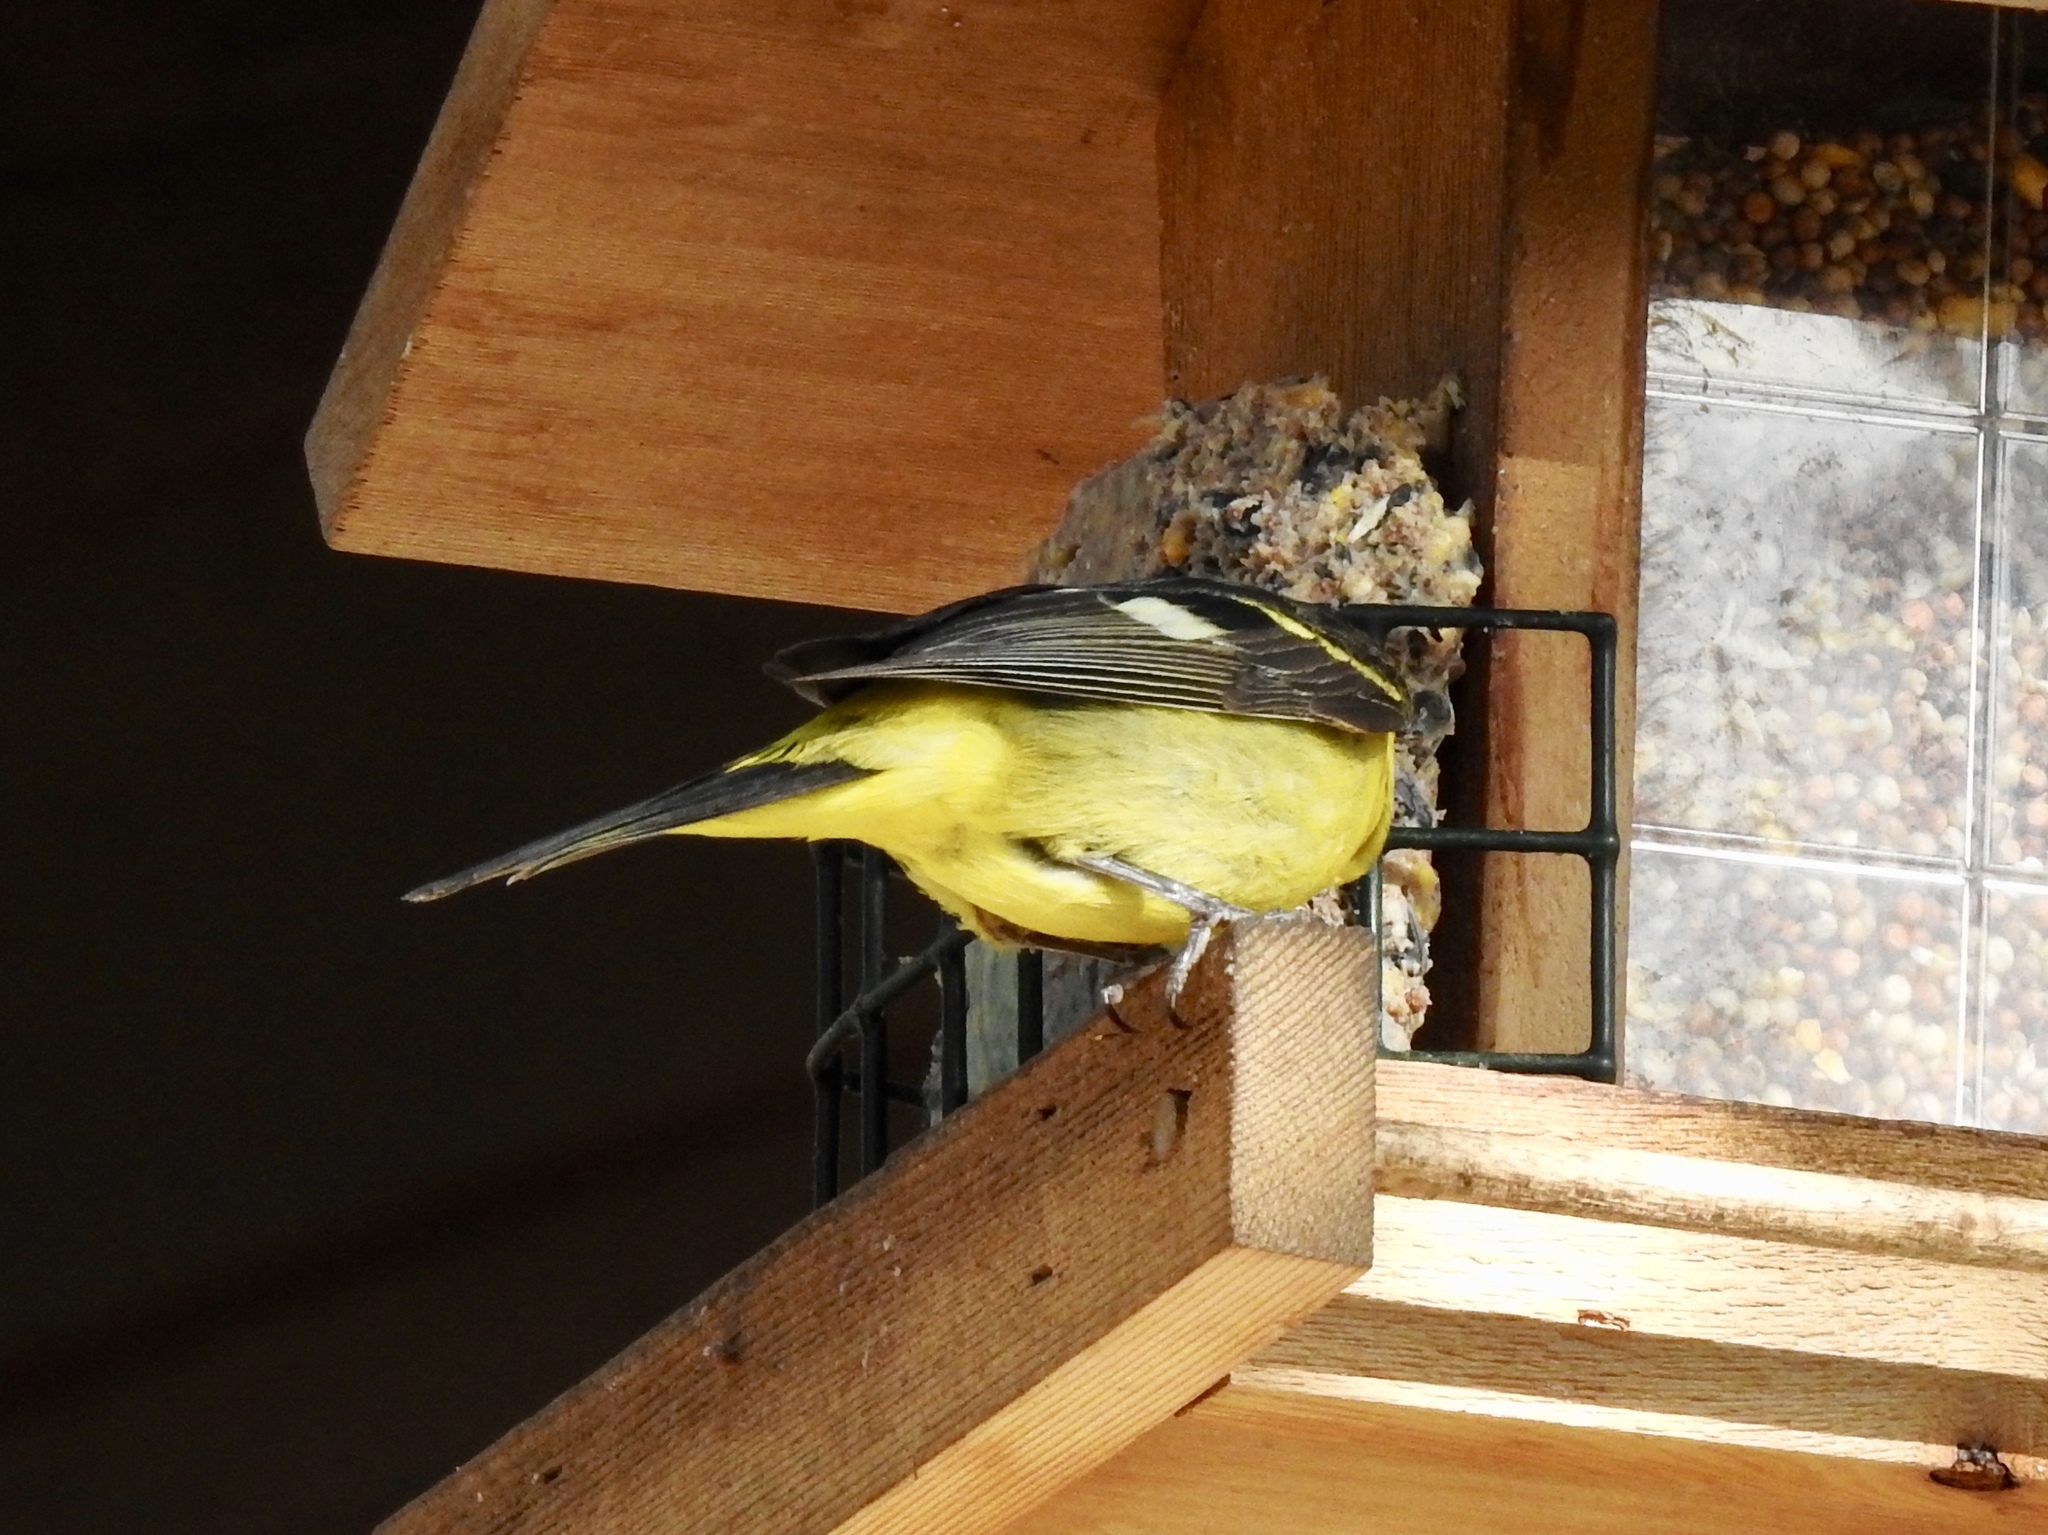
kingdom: Animalia
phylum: Chordata
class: Aves
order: Passeriformes
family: Cardinalidae
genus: Piranga
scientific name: Piranga ludoviciana
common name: Western tanager
